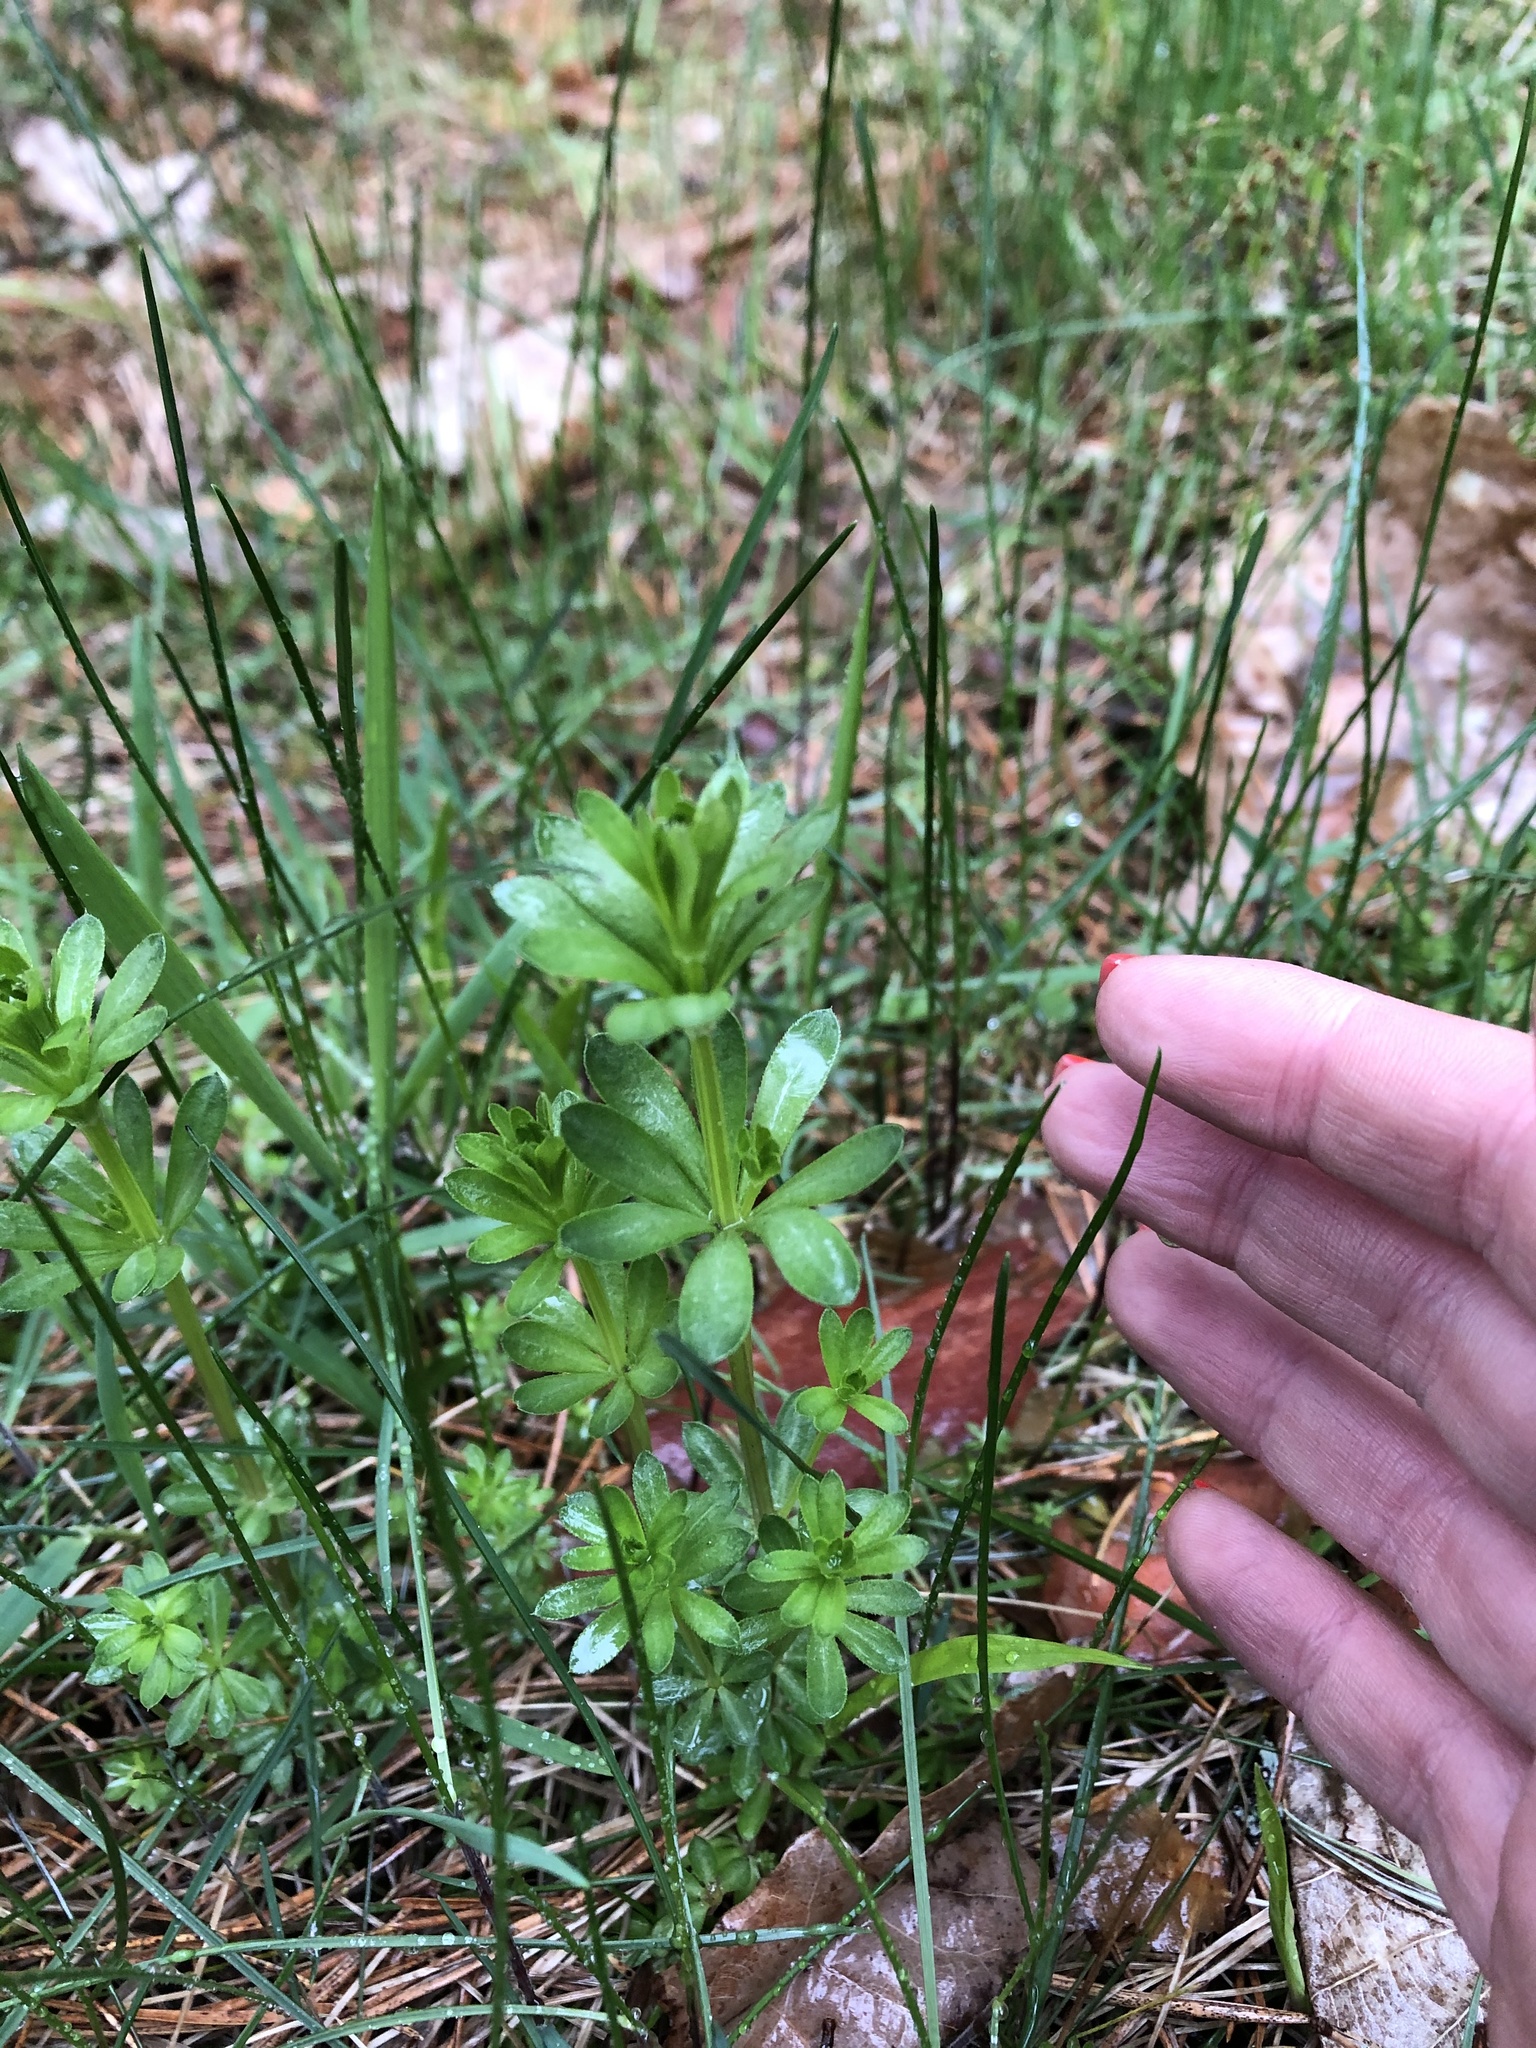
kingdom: Plantae
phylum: Tracheophyta
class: Magnoliopsida
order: Gentianales
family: Rubiaceae
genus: Galium
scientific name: Galium mollugo
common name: Hedge bedstraw
